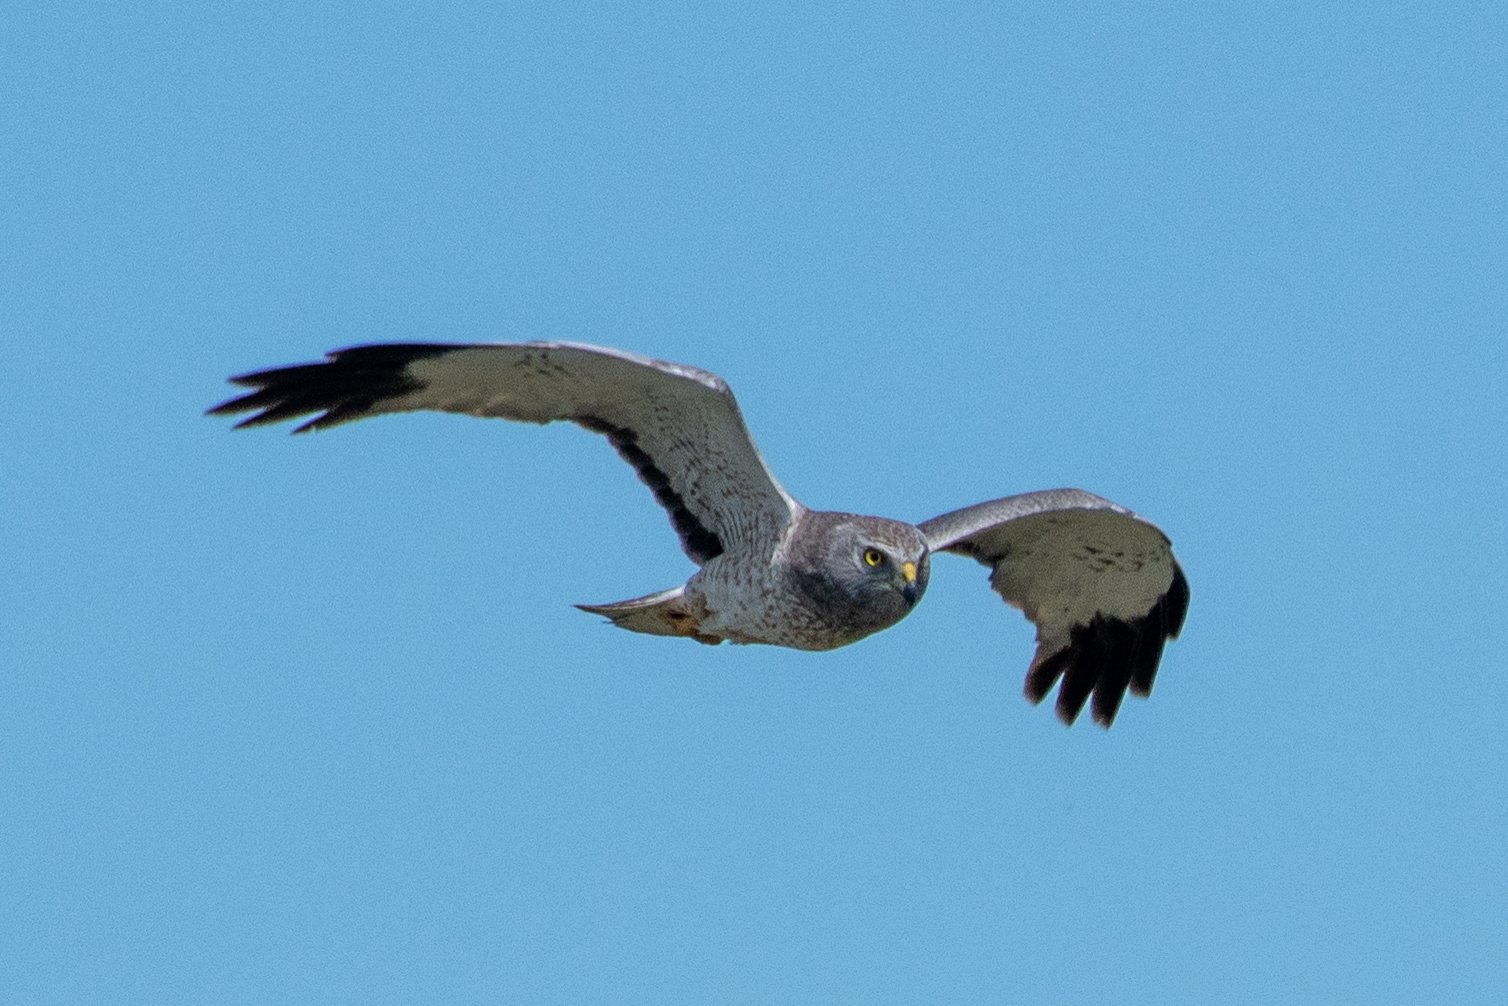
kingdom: Animalia
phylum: Chordata
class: Aves
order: Accipitriformes
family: Accipitridae
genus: Circus
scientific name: Circus cyaneus
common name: Hen harrier
